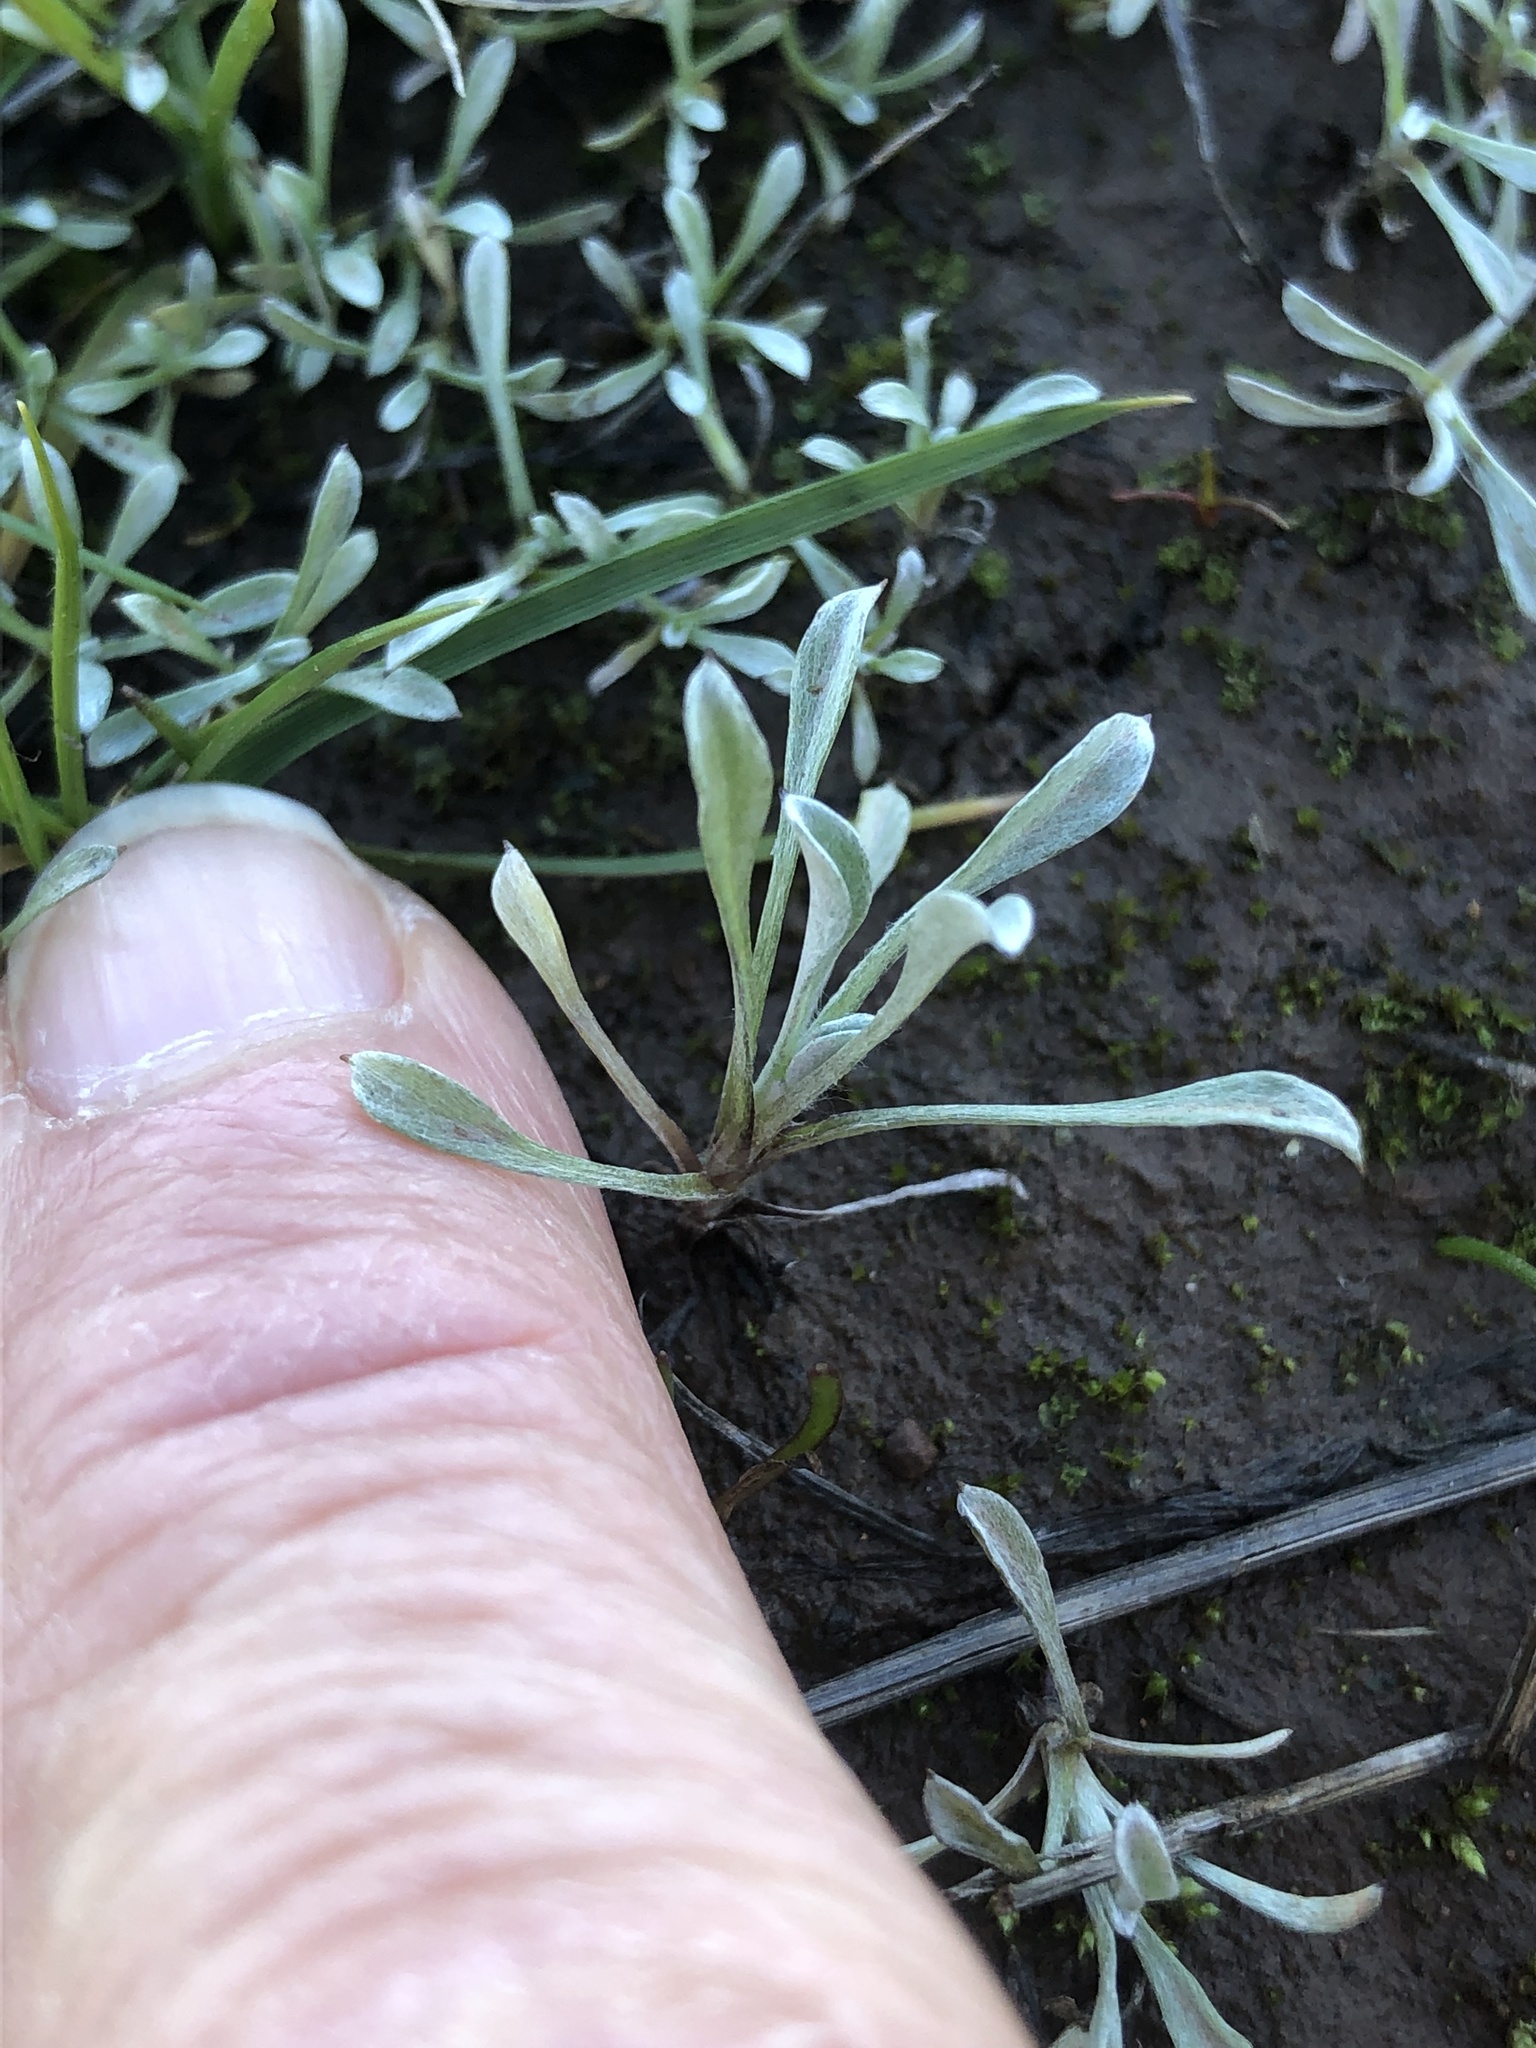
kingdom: Plantae
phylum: Tracheophyta
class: Magnoliopsida
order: Asterales
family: Asteraceae
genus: Hesperevax
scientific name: Hesperevax sparsiflora
